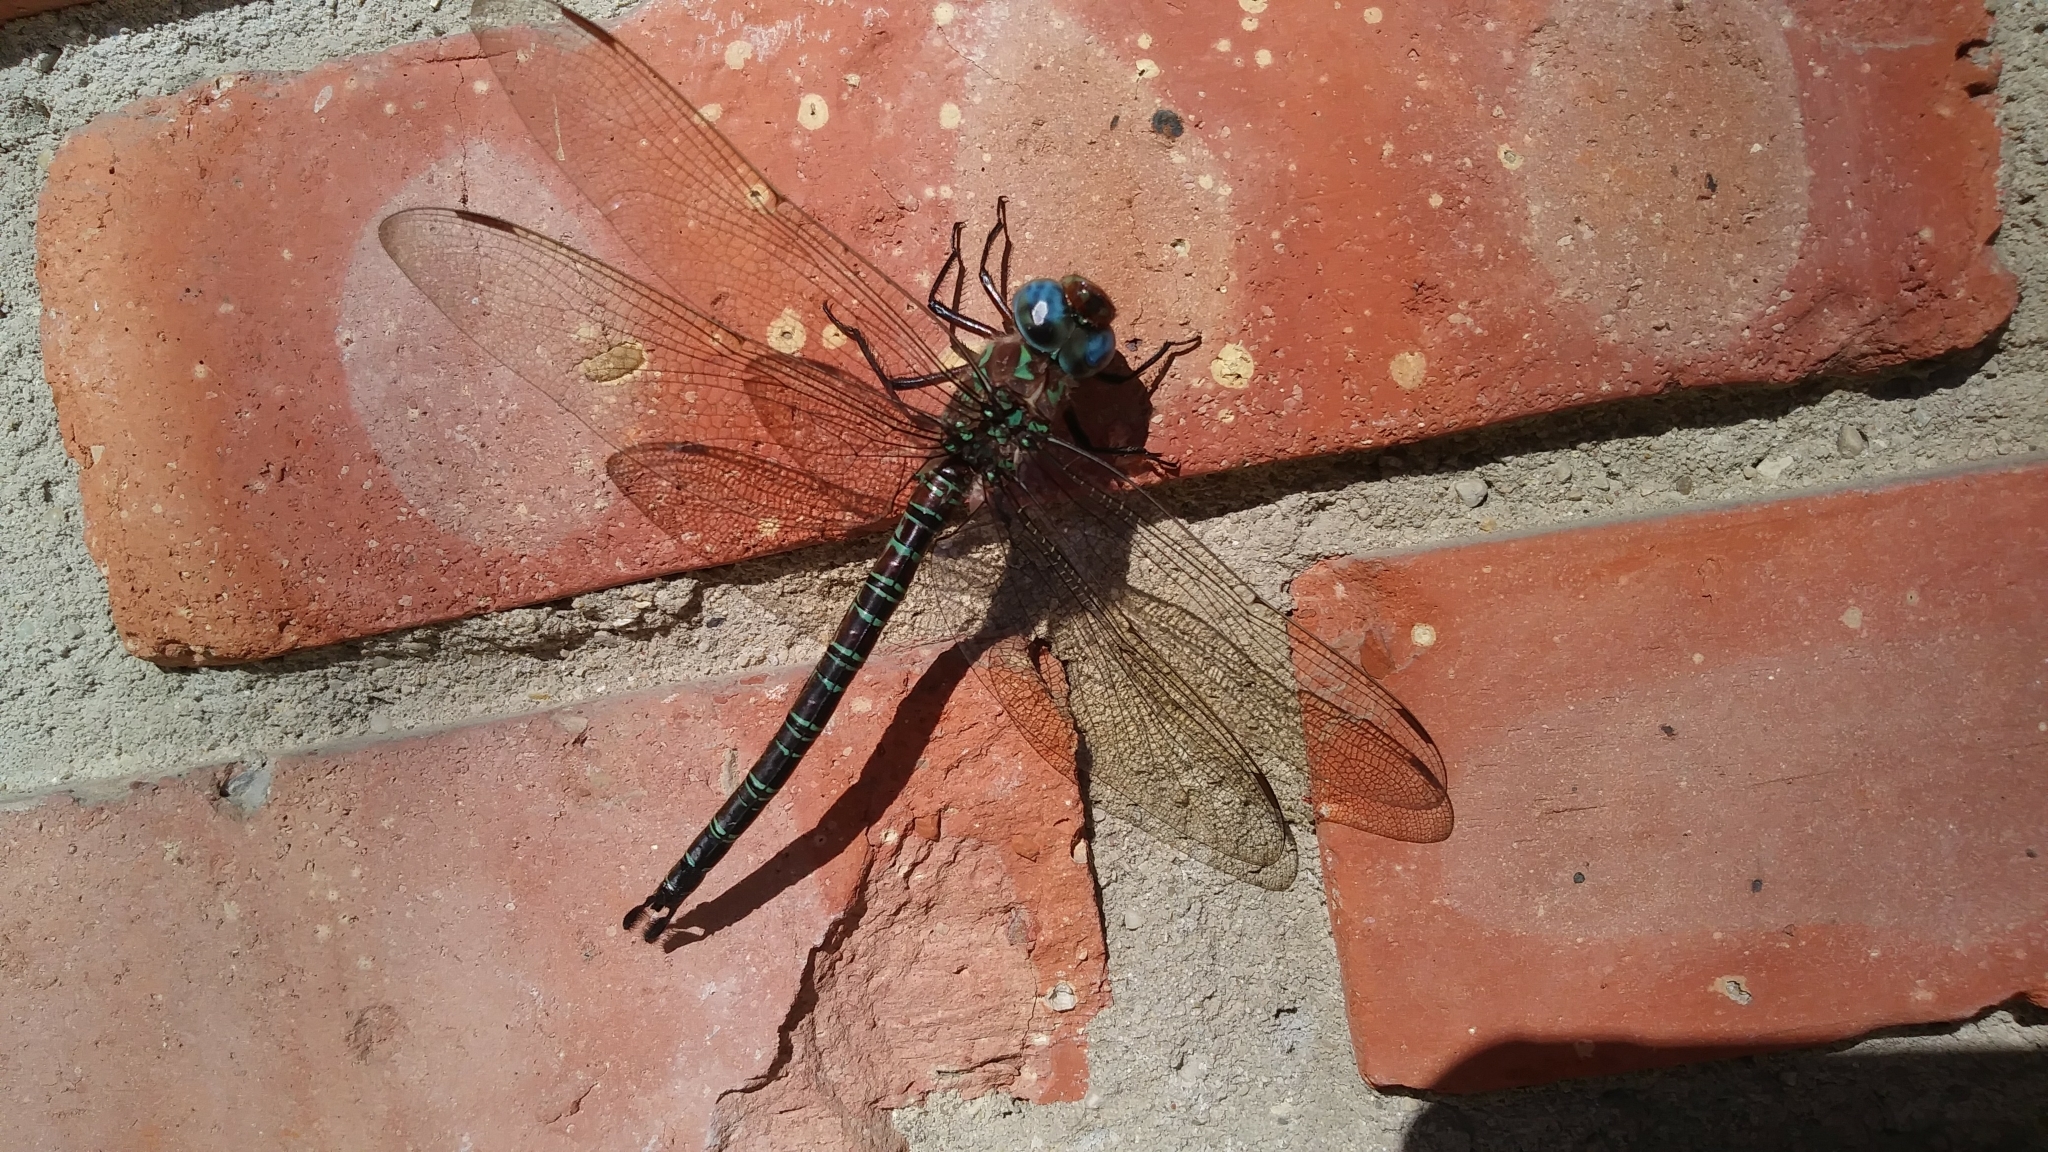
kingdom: Animalia
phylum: Arthropoda
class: Insecta
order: Odonata
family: Aeshnidae
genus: Epiaeschna
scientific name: Epiaeschna heros
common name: Swamp darner
